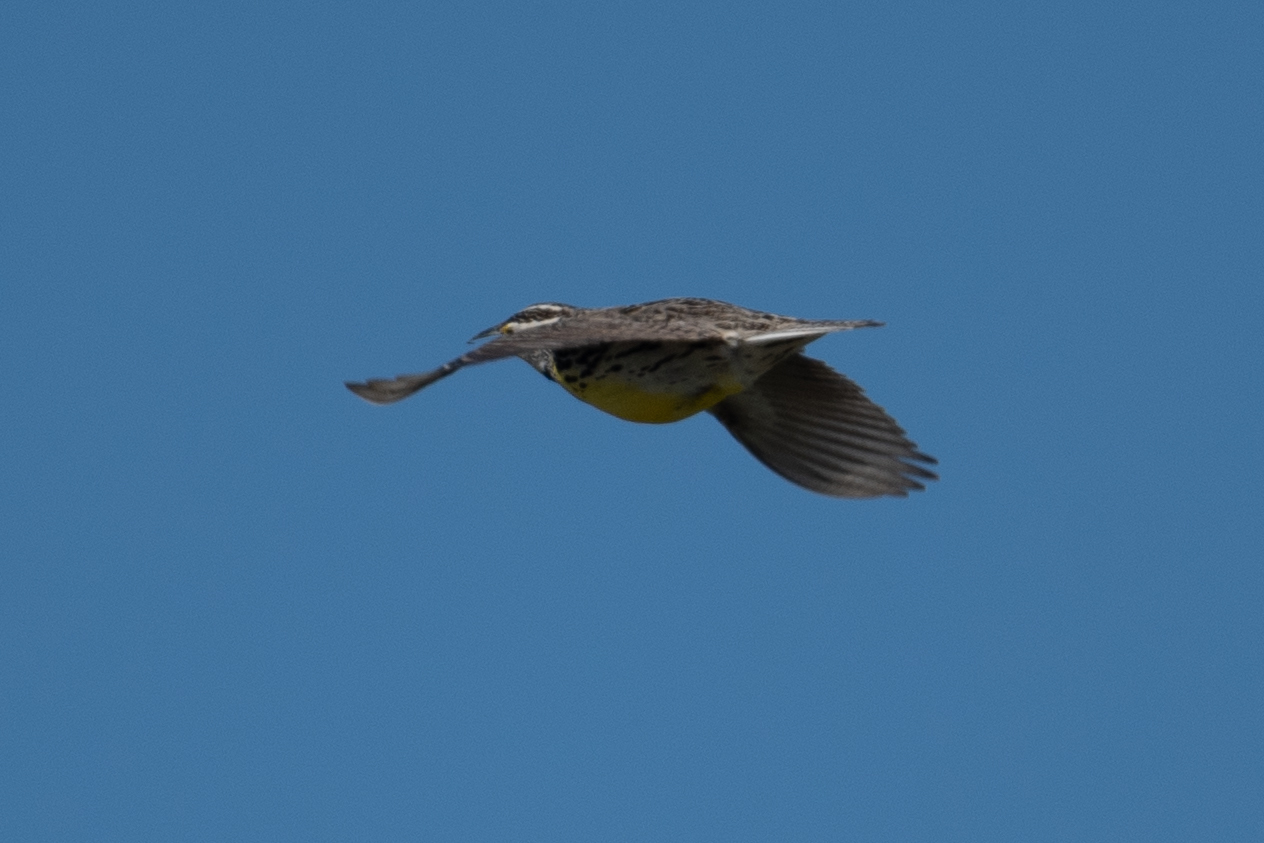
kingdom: Animalia
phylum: Chordata
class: Aves
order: Passeriformes
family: Icteridae
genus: Sturnella
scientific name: Sturnella neglecta
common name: Western meadowlark
